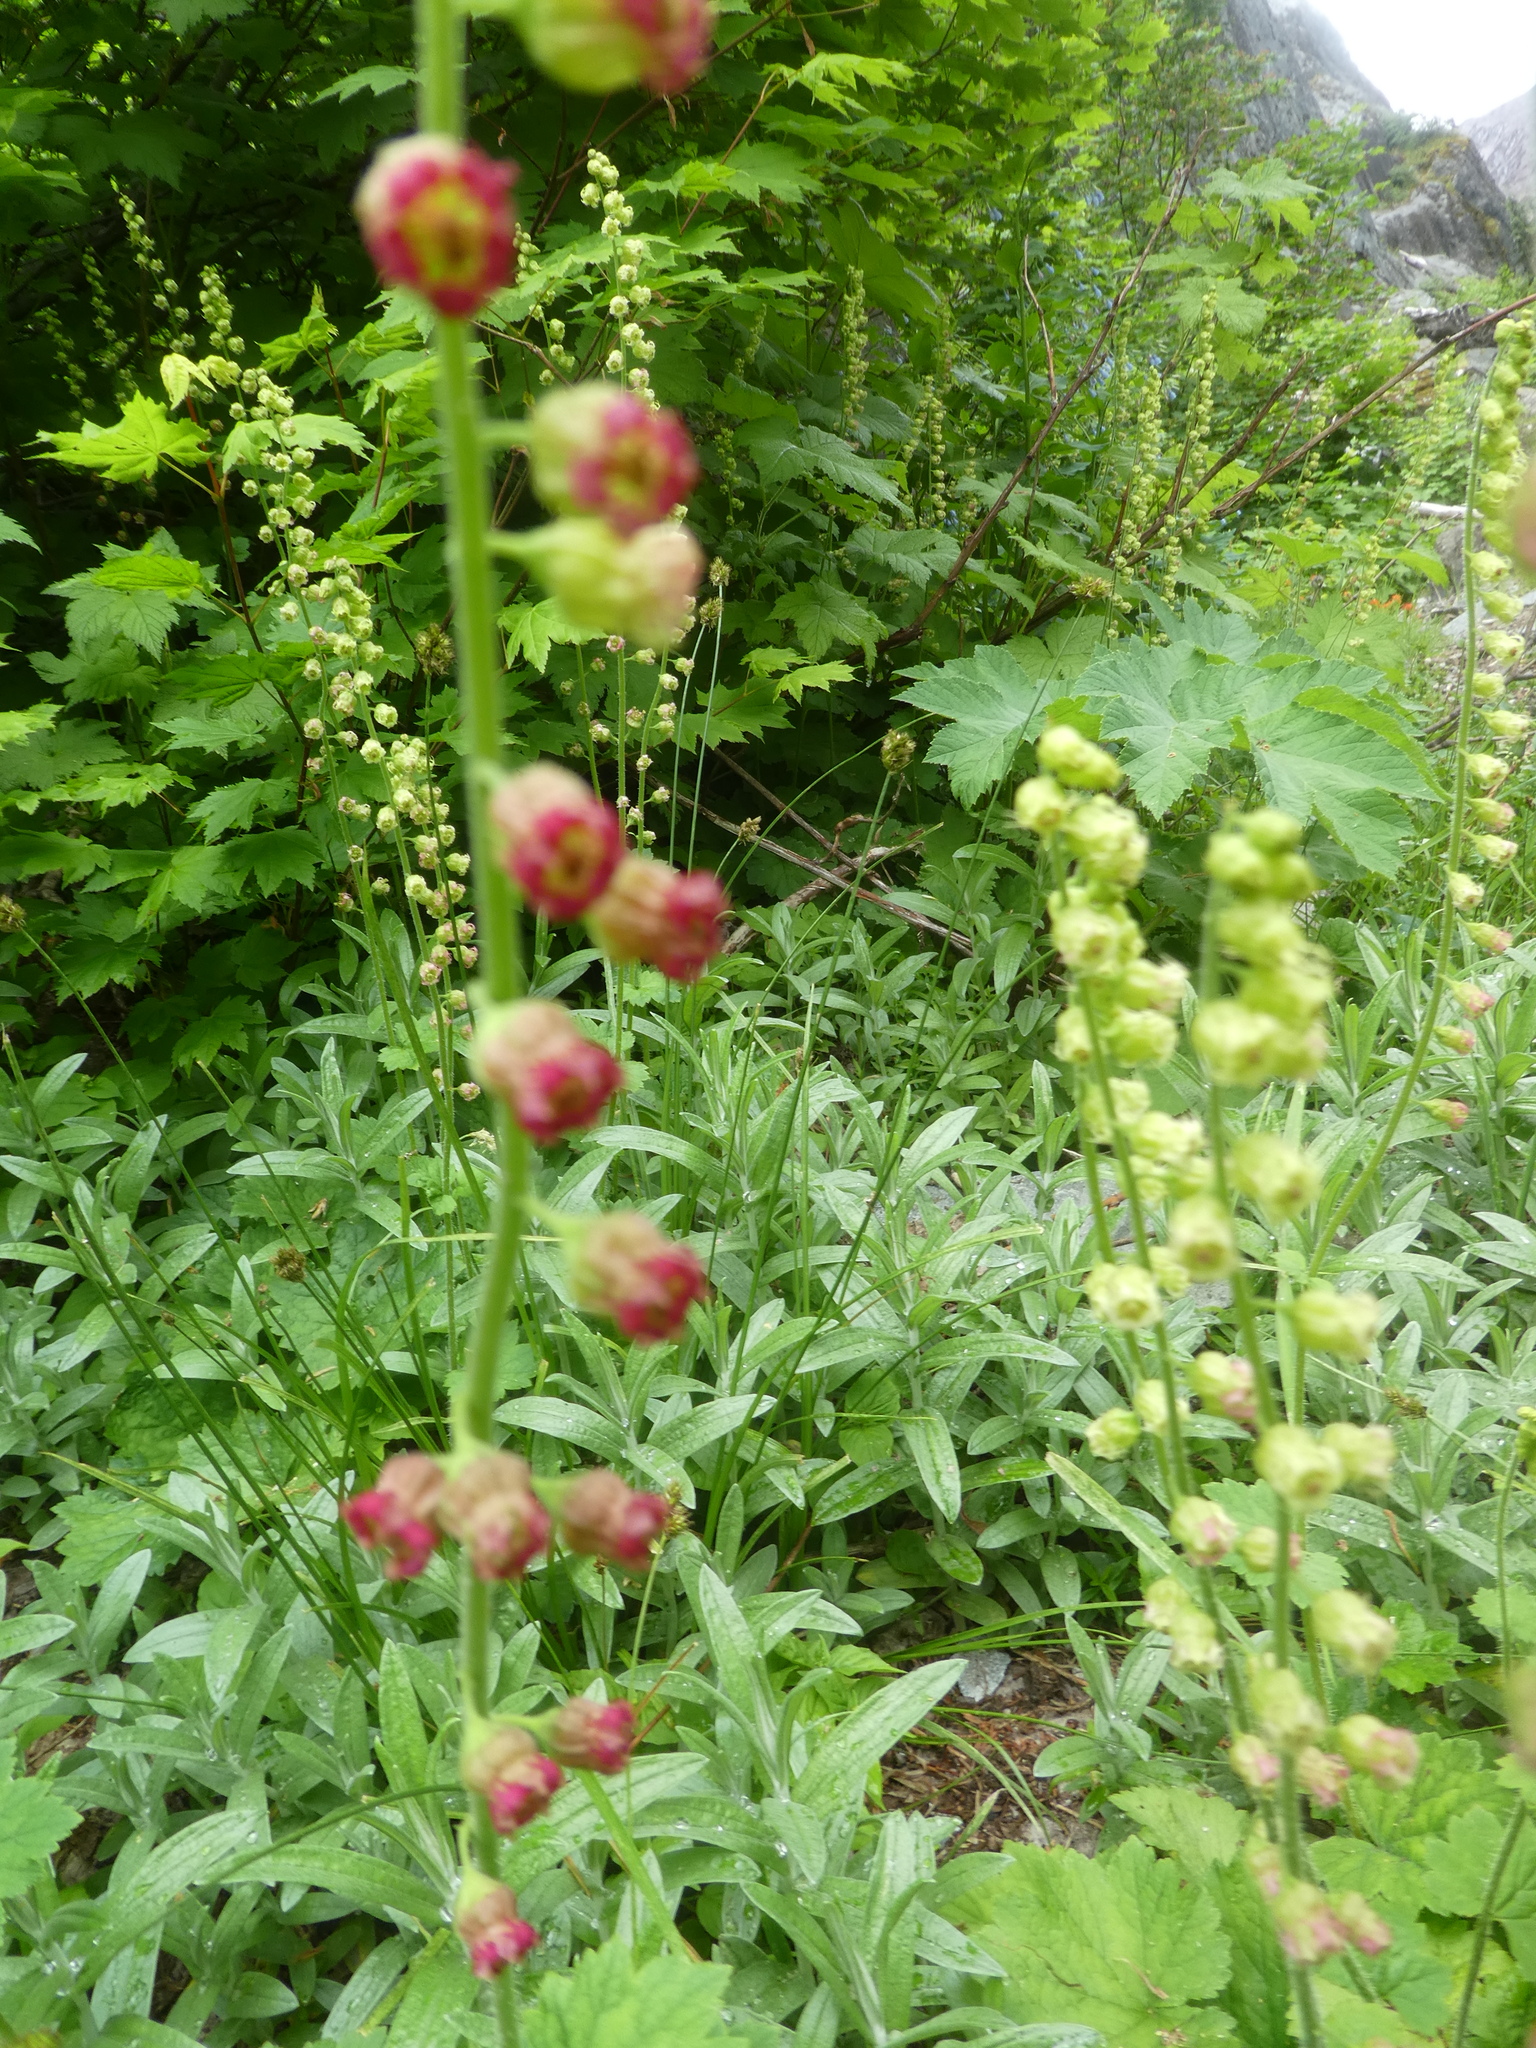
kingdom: Plantae
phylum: Tracheophyta
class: Magnoliopsida
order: Saxifragales
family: Saxifragaceae
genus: Tellima
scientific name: Tellima grandiflora
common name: Fringecups
